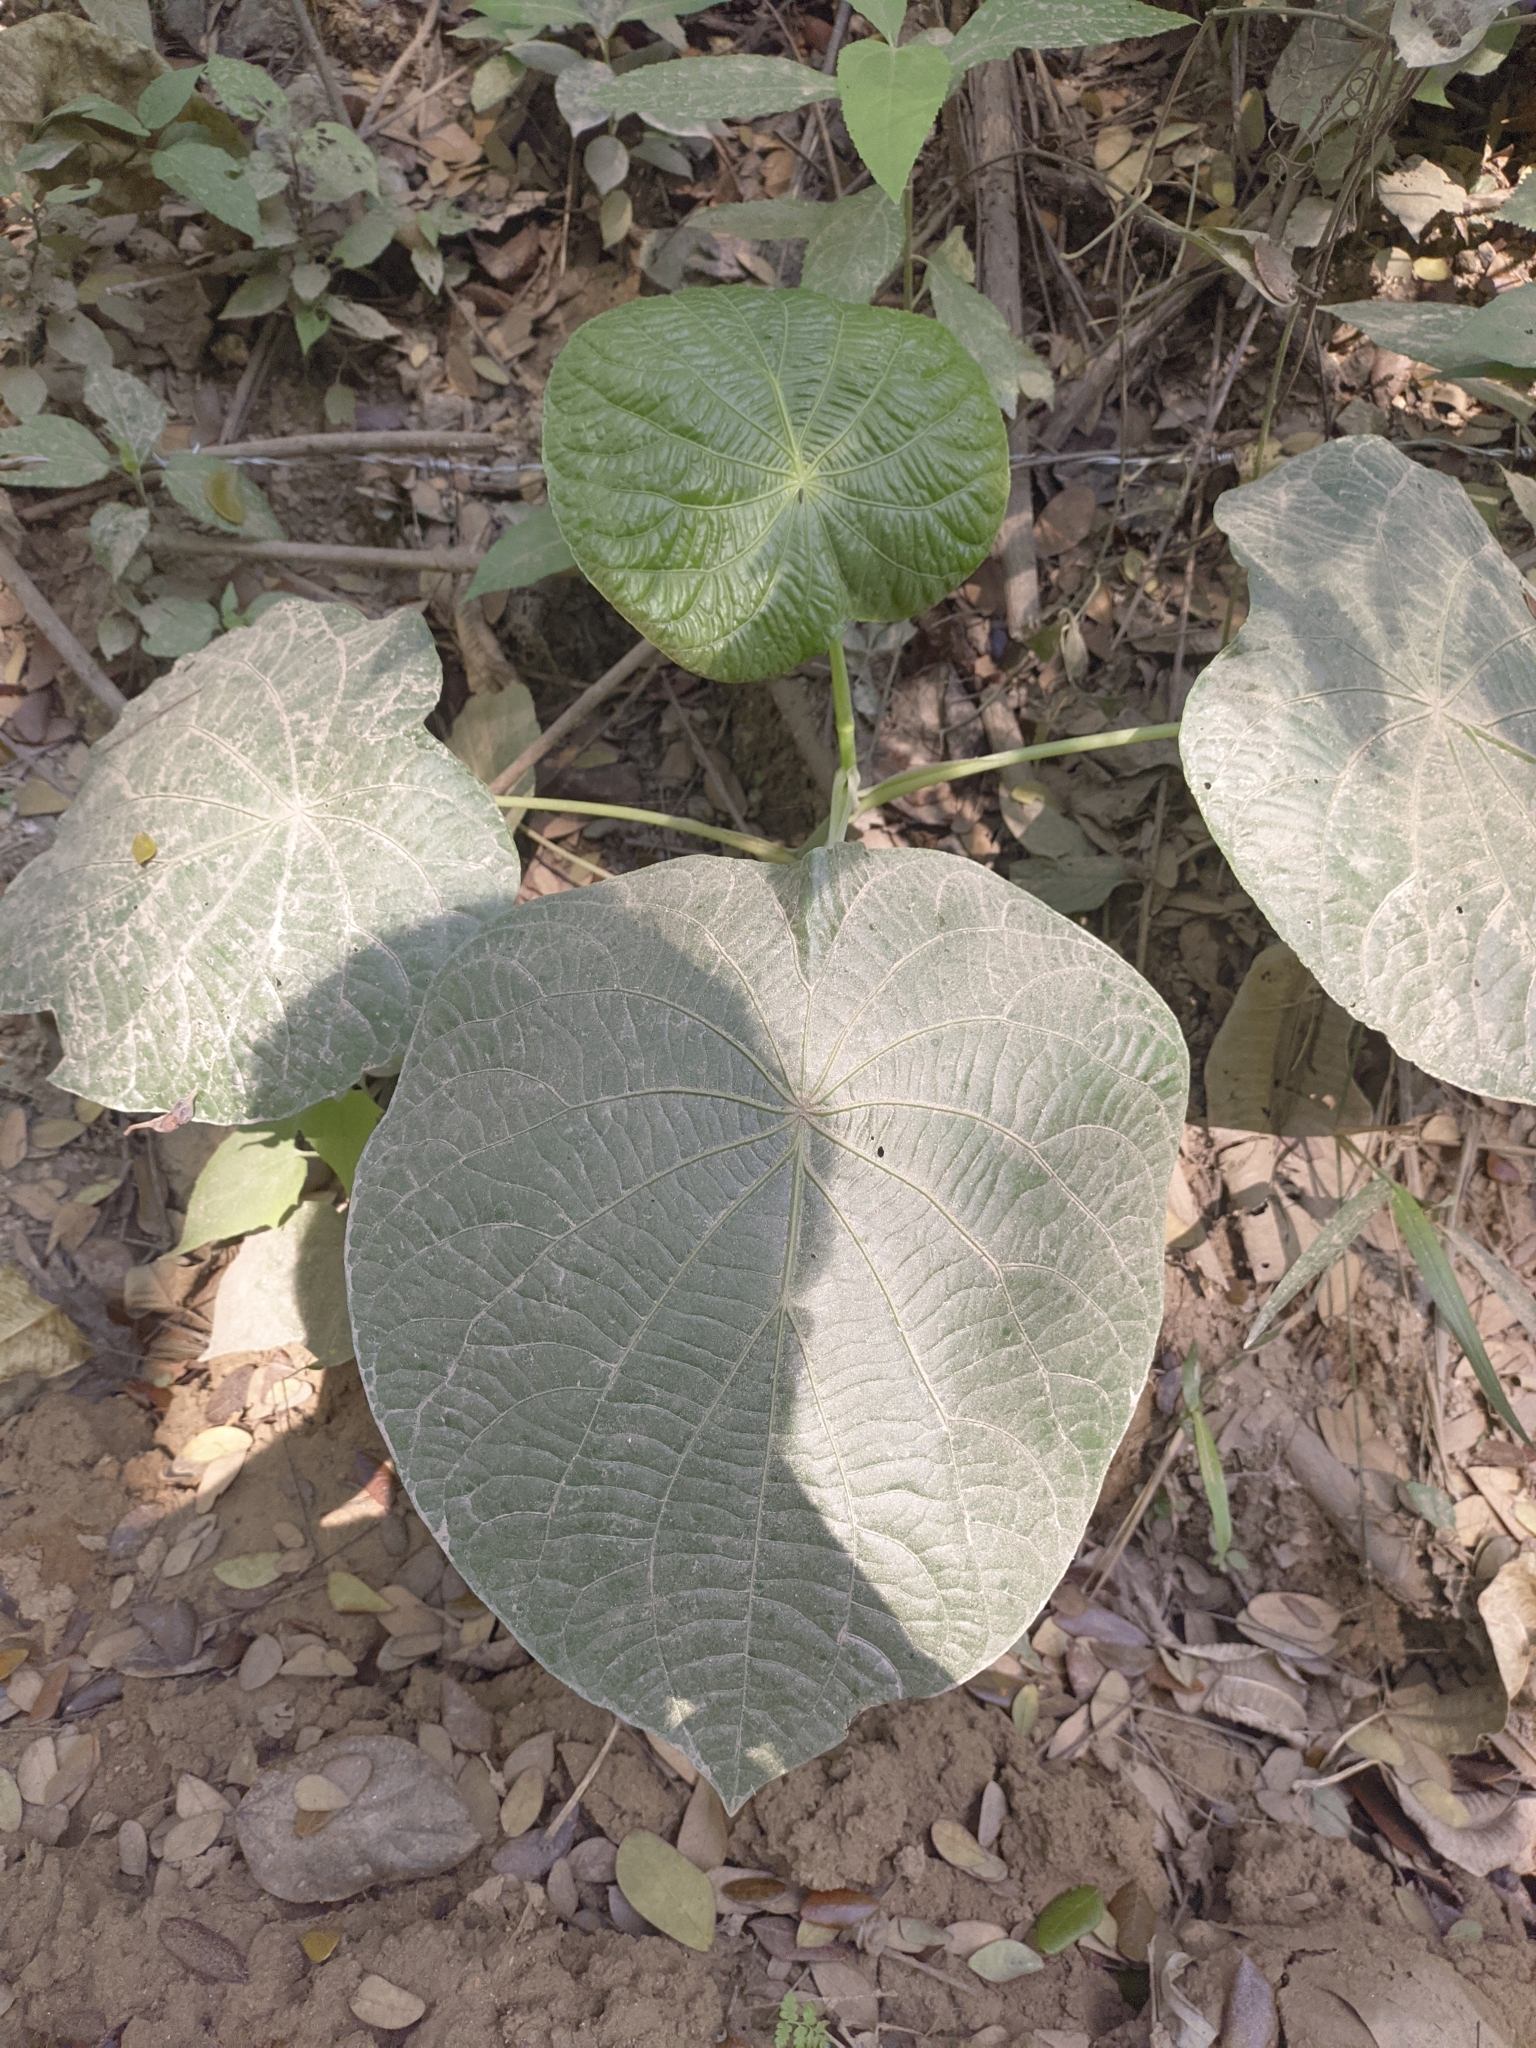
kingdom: Plantae
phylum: Tracheophyta
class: Magnoliopsida
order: Piperales
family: Piperaceae
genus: Piper
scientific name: Piper peltatum
